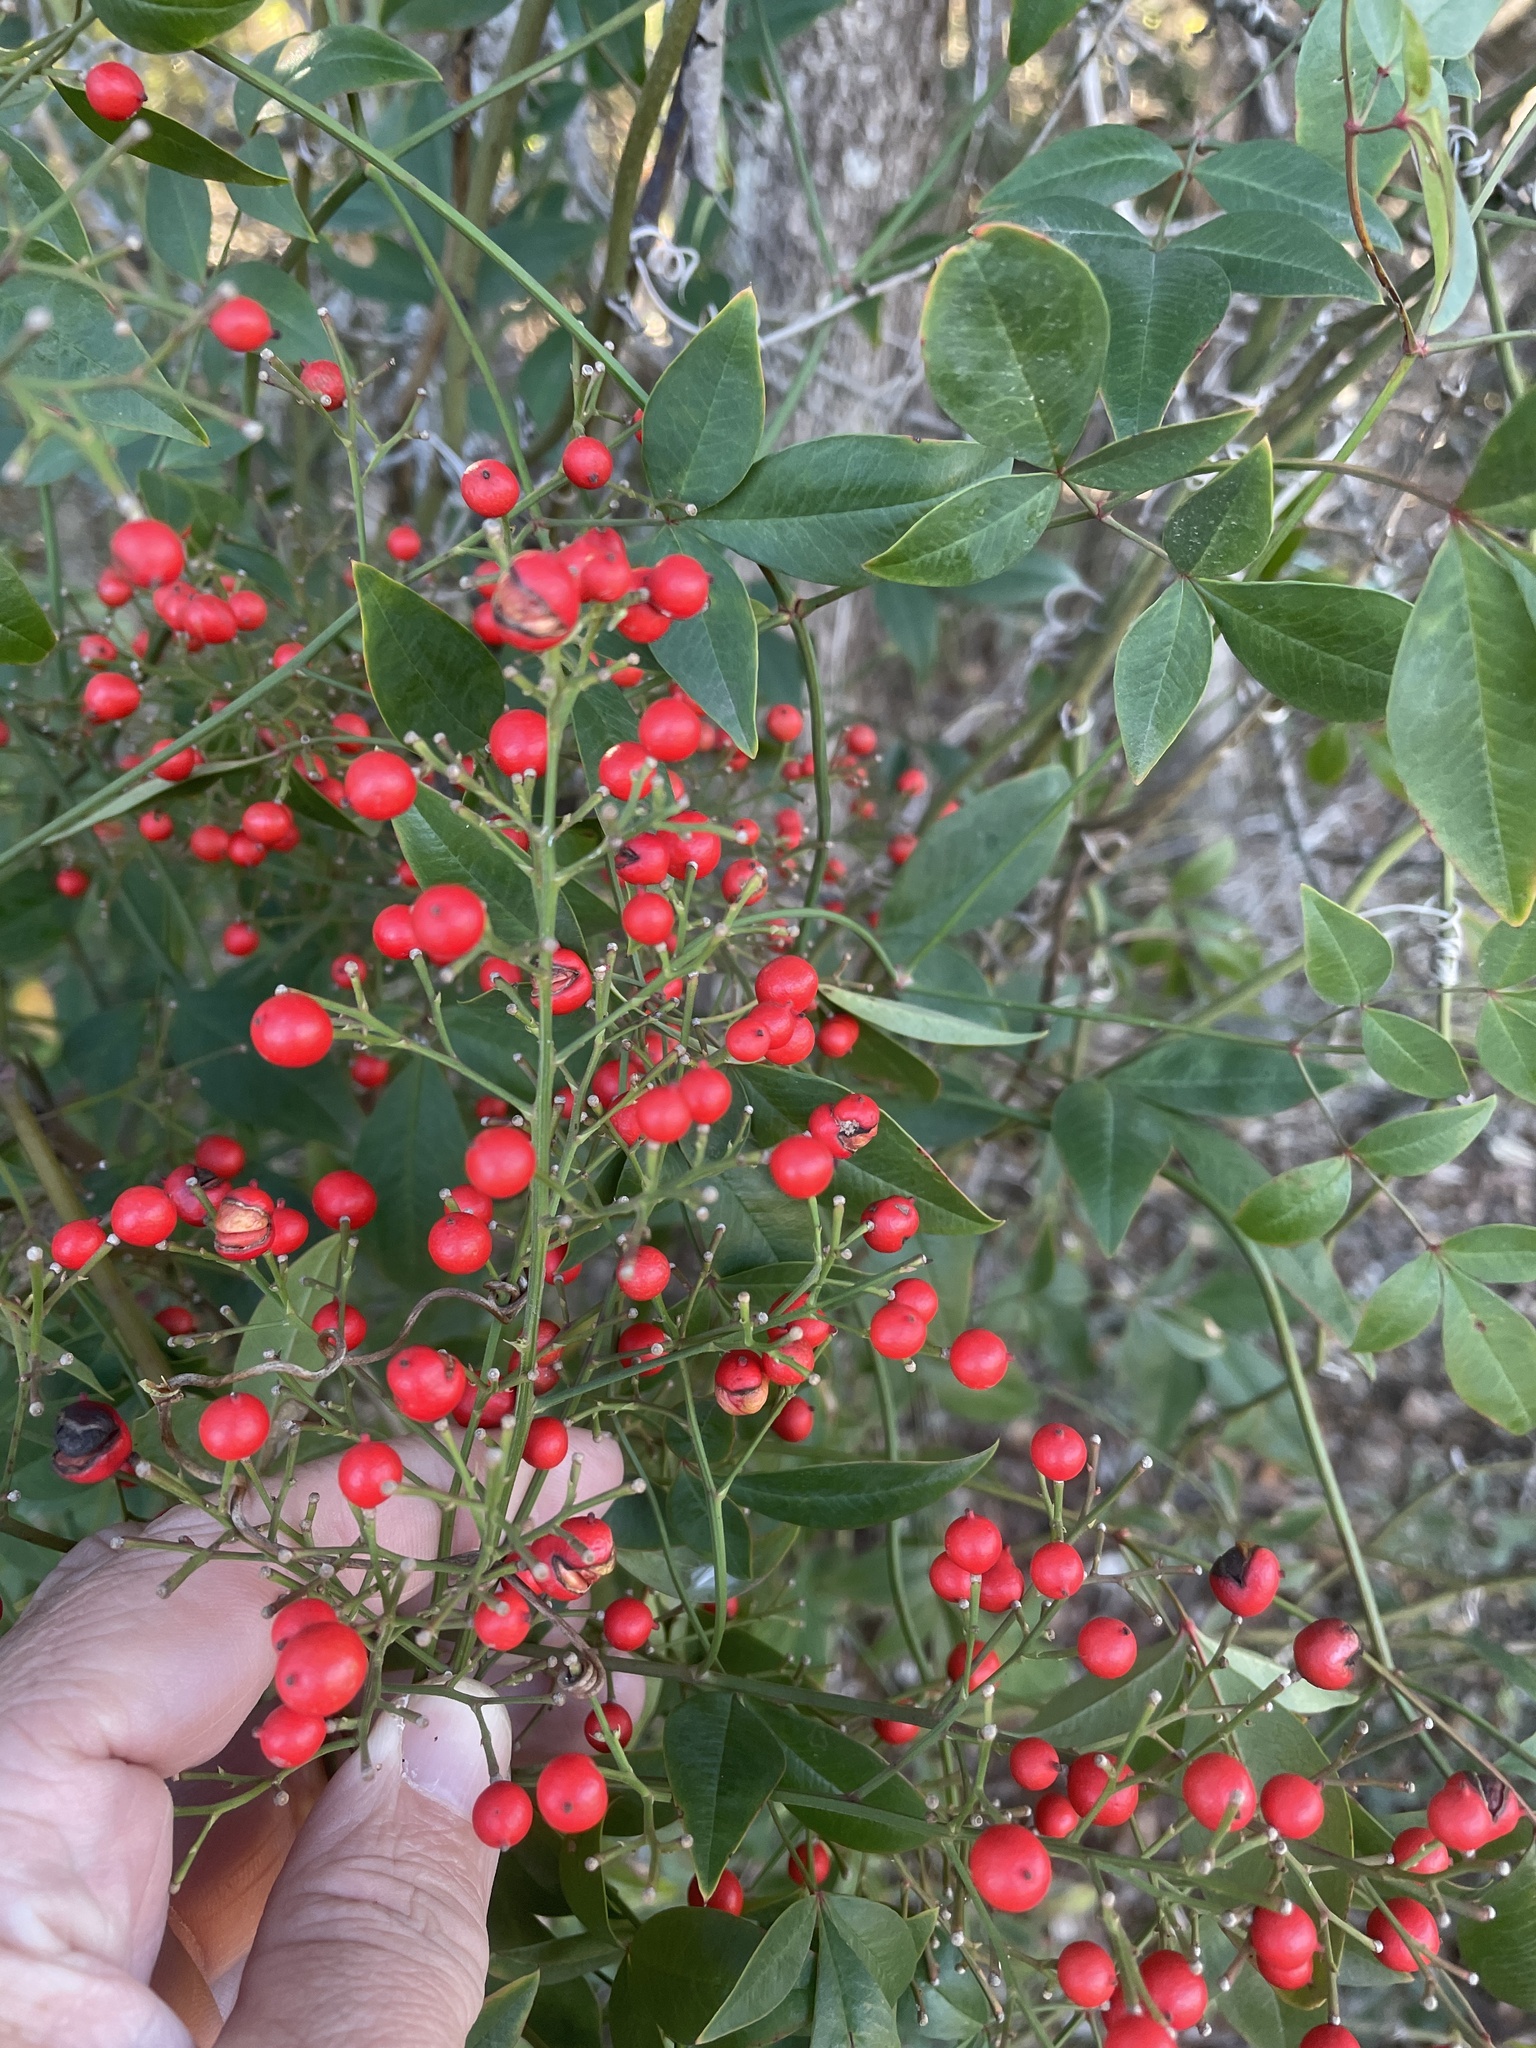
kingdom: Plantae
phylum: Tracheophyta
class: Magnoliopsida
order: Ranunculales
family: Berberidaceae
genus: Nandina
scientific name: Nandina domestica
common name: Sacred bamboo
